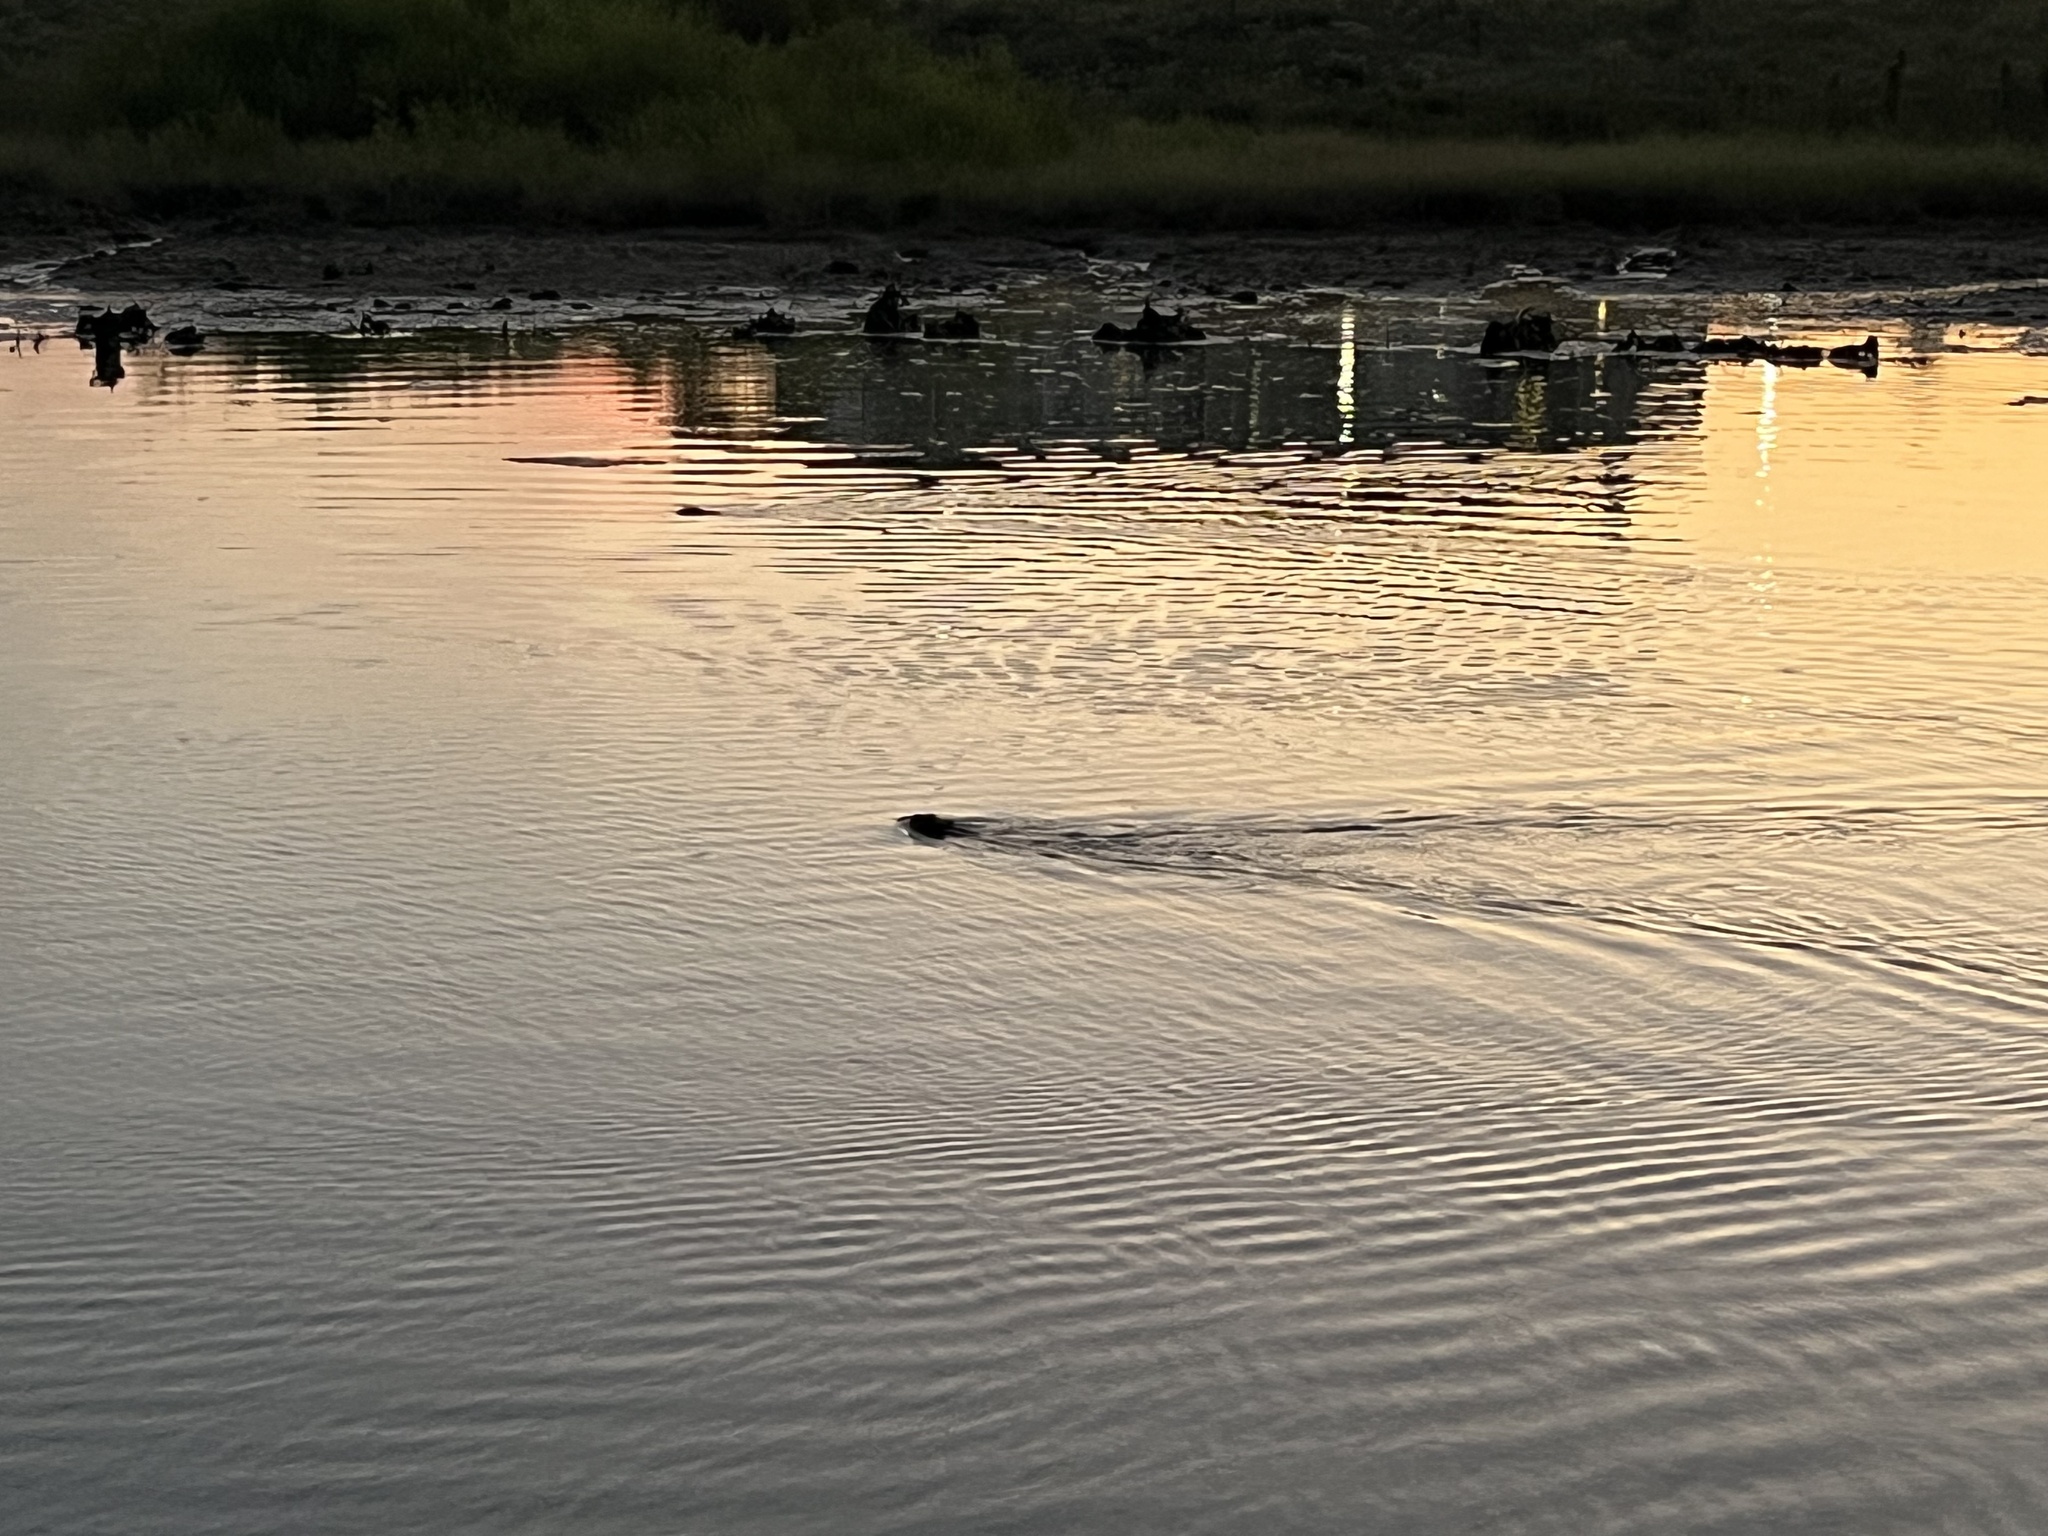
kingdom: Animalia
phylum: Chordata
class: Mammalia
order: Rodentia
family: Castoridae
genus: Castor
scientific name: Castor canadensis
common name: American beaver
